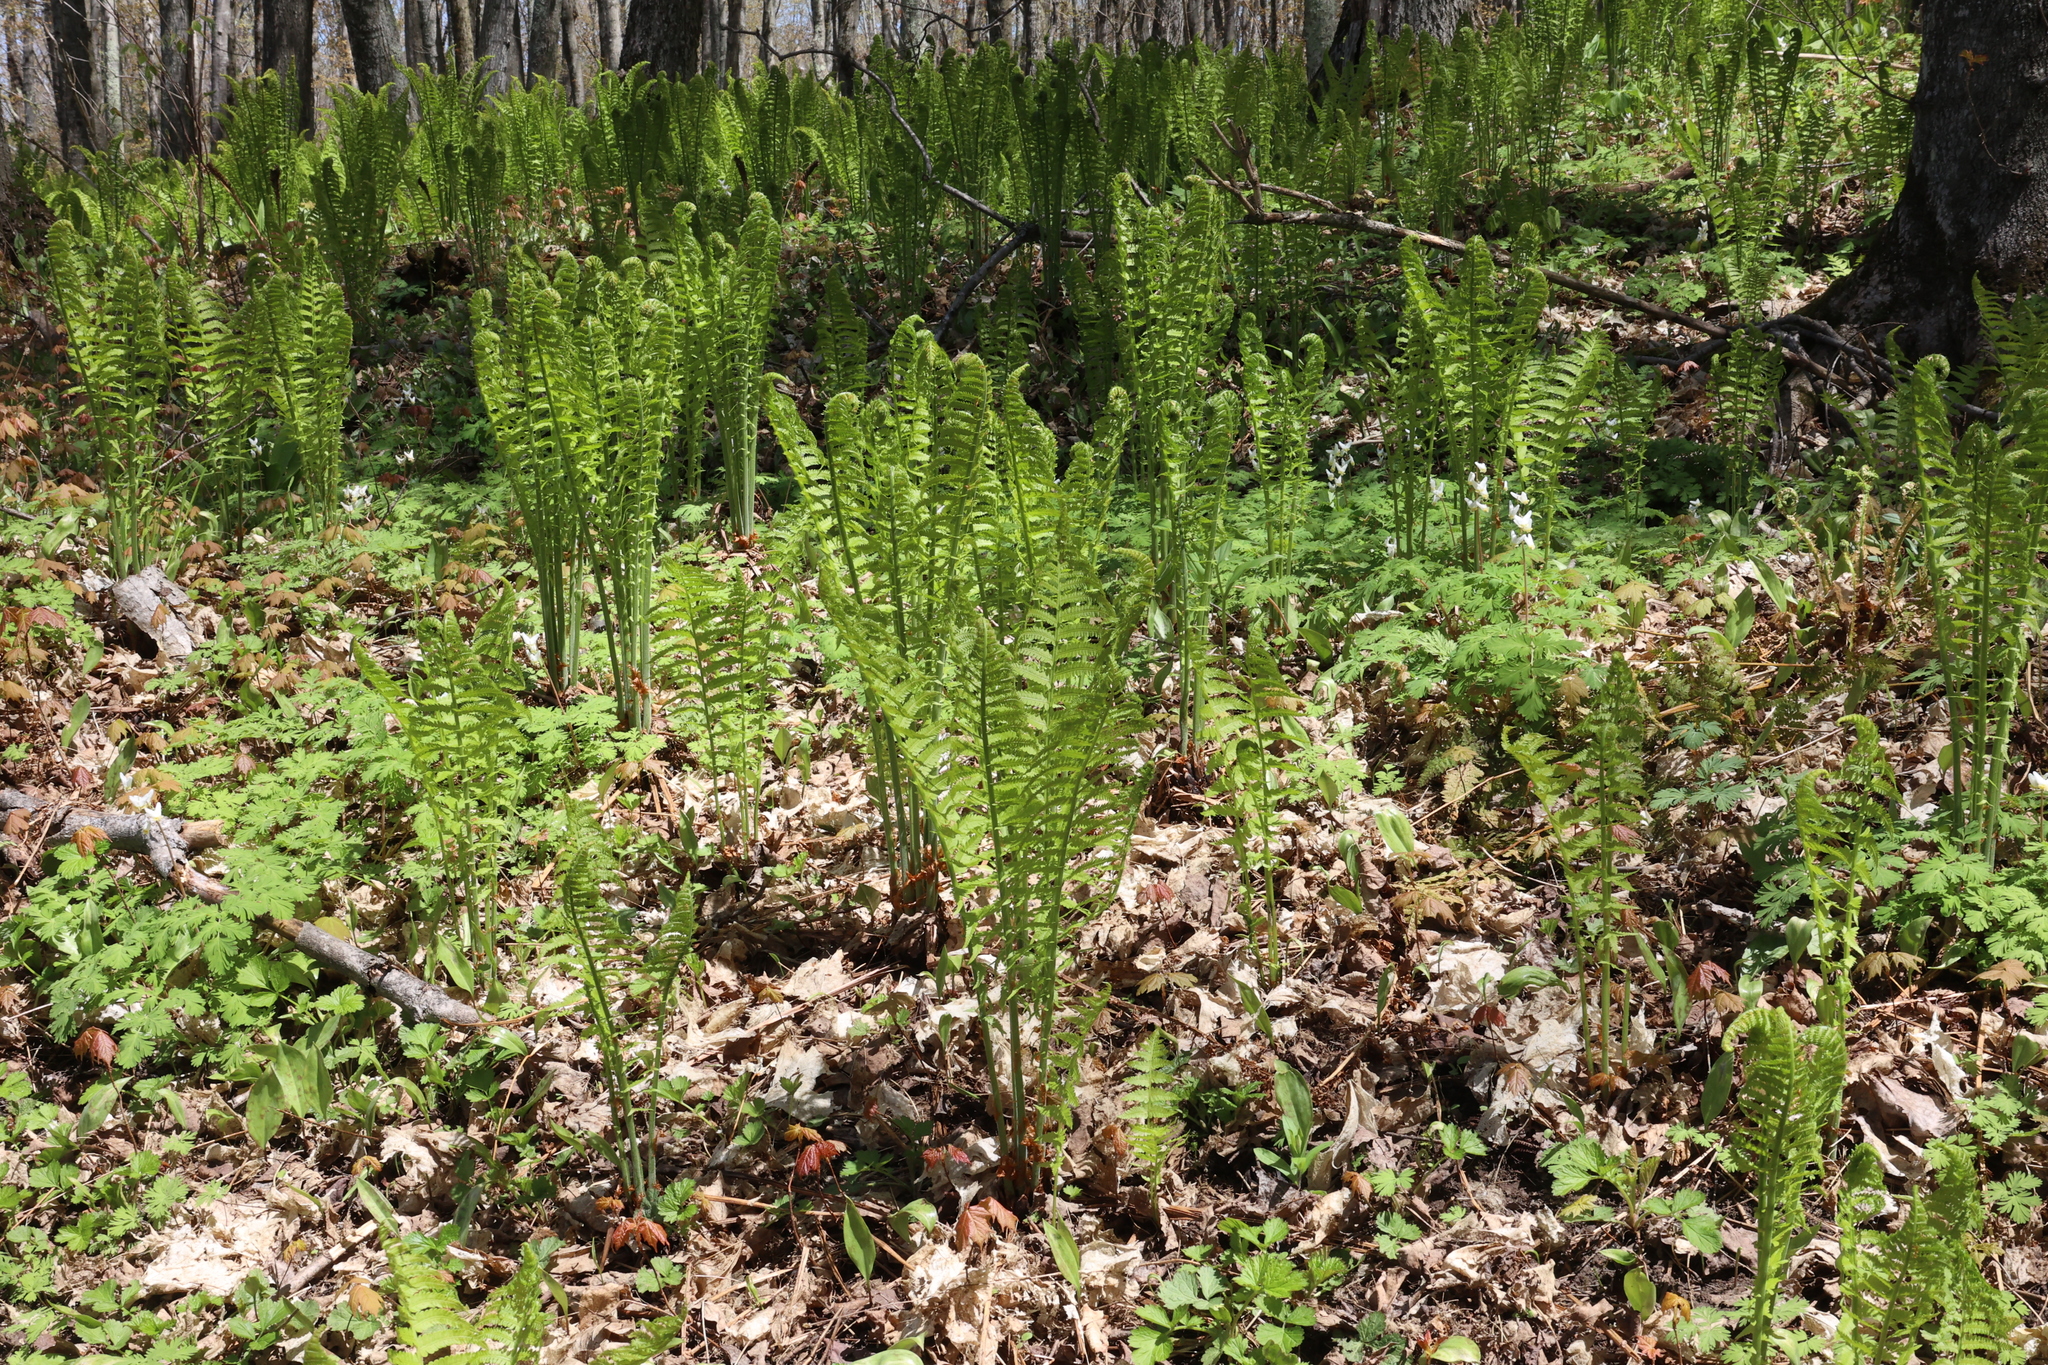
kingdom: Plantae
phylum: Tracheophyta
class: Polypodiopsida
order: Polypodiales
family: Onocleaceae
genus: Matteuccia
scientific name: Matteuccia struthiopteris
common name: Ostrich fern
